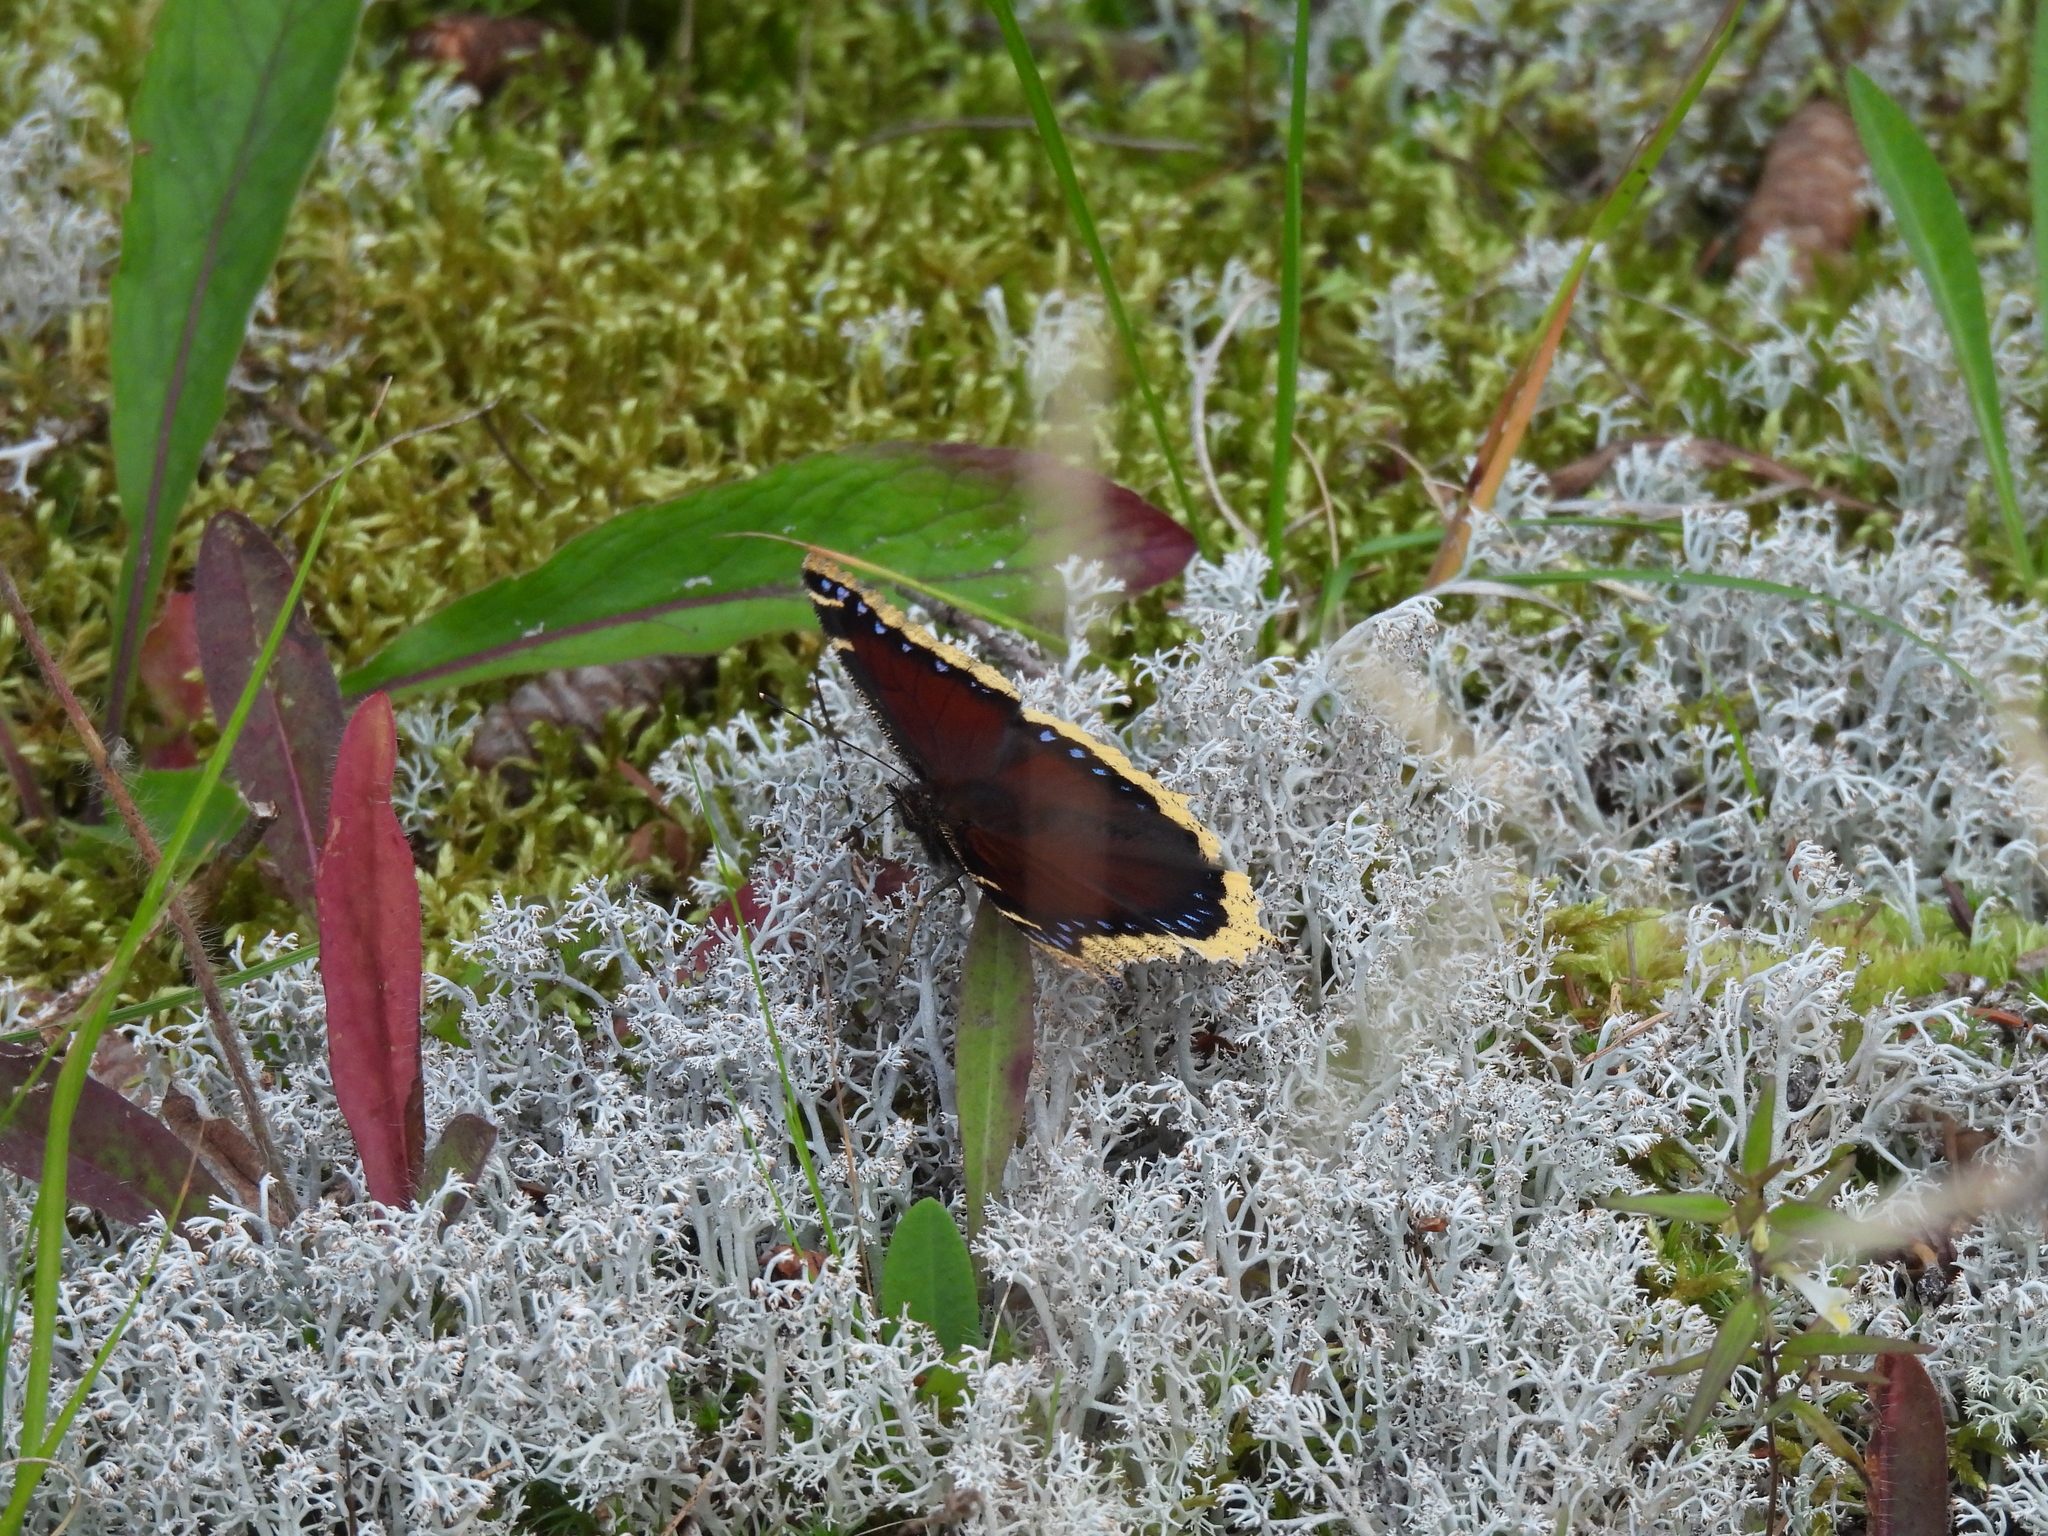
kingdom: Animalia
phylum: Arthropoda
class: Insecta
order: Lepidoptera
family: Nymphalidae
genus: Nymphalis
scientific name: Nymphalis antiopa
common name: Camberwell beauty
